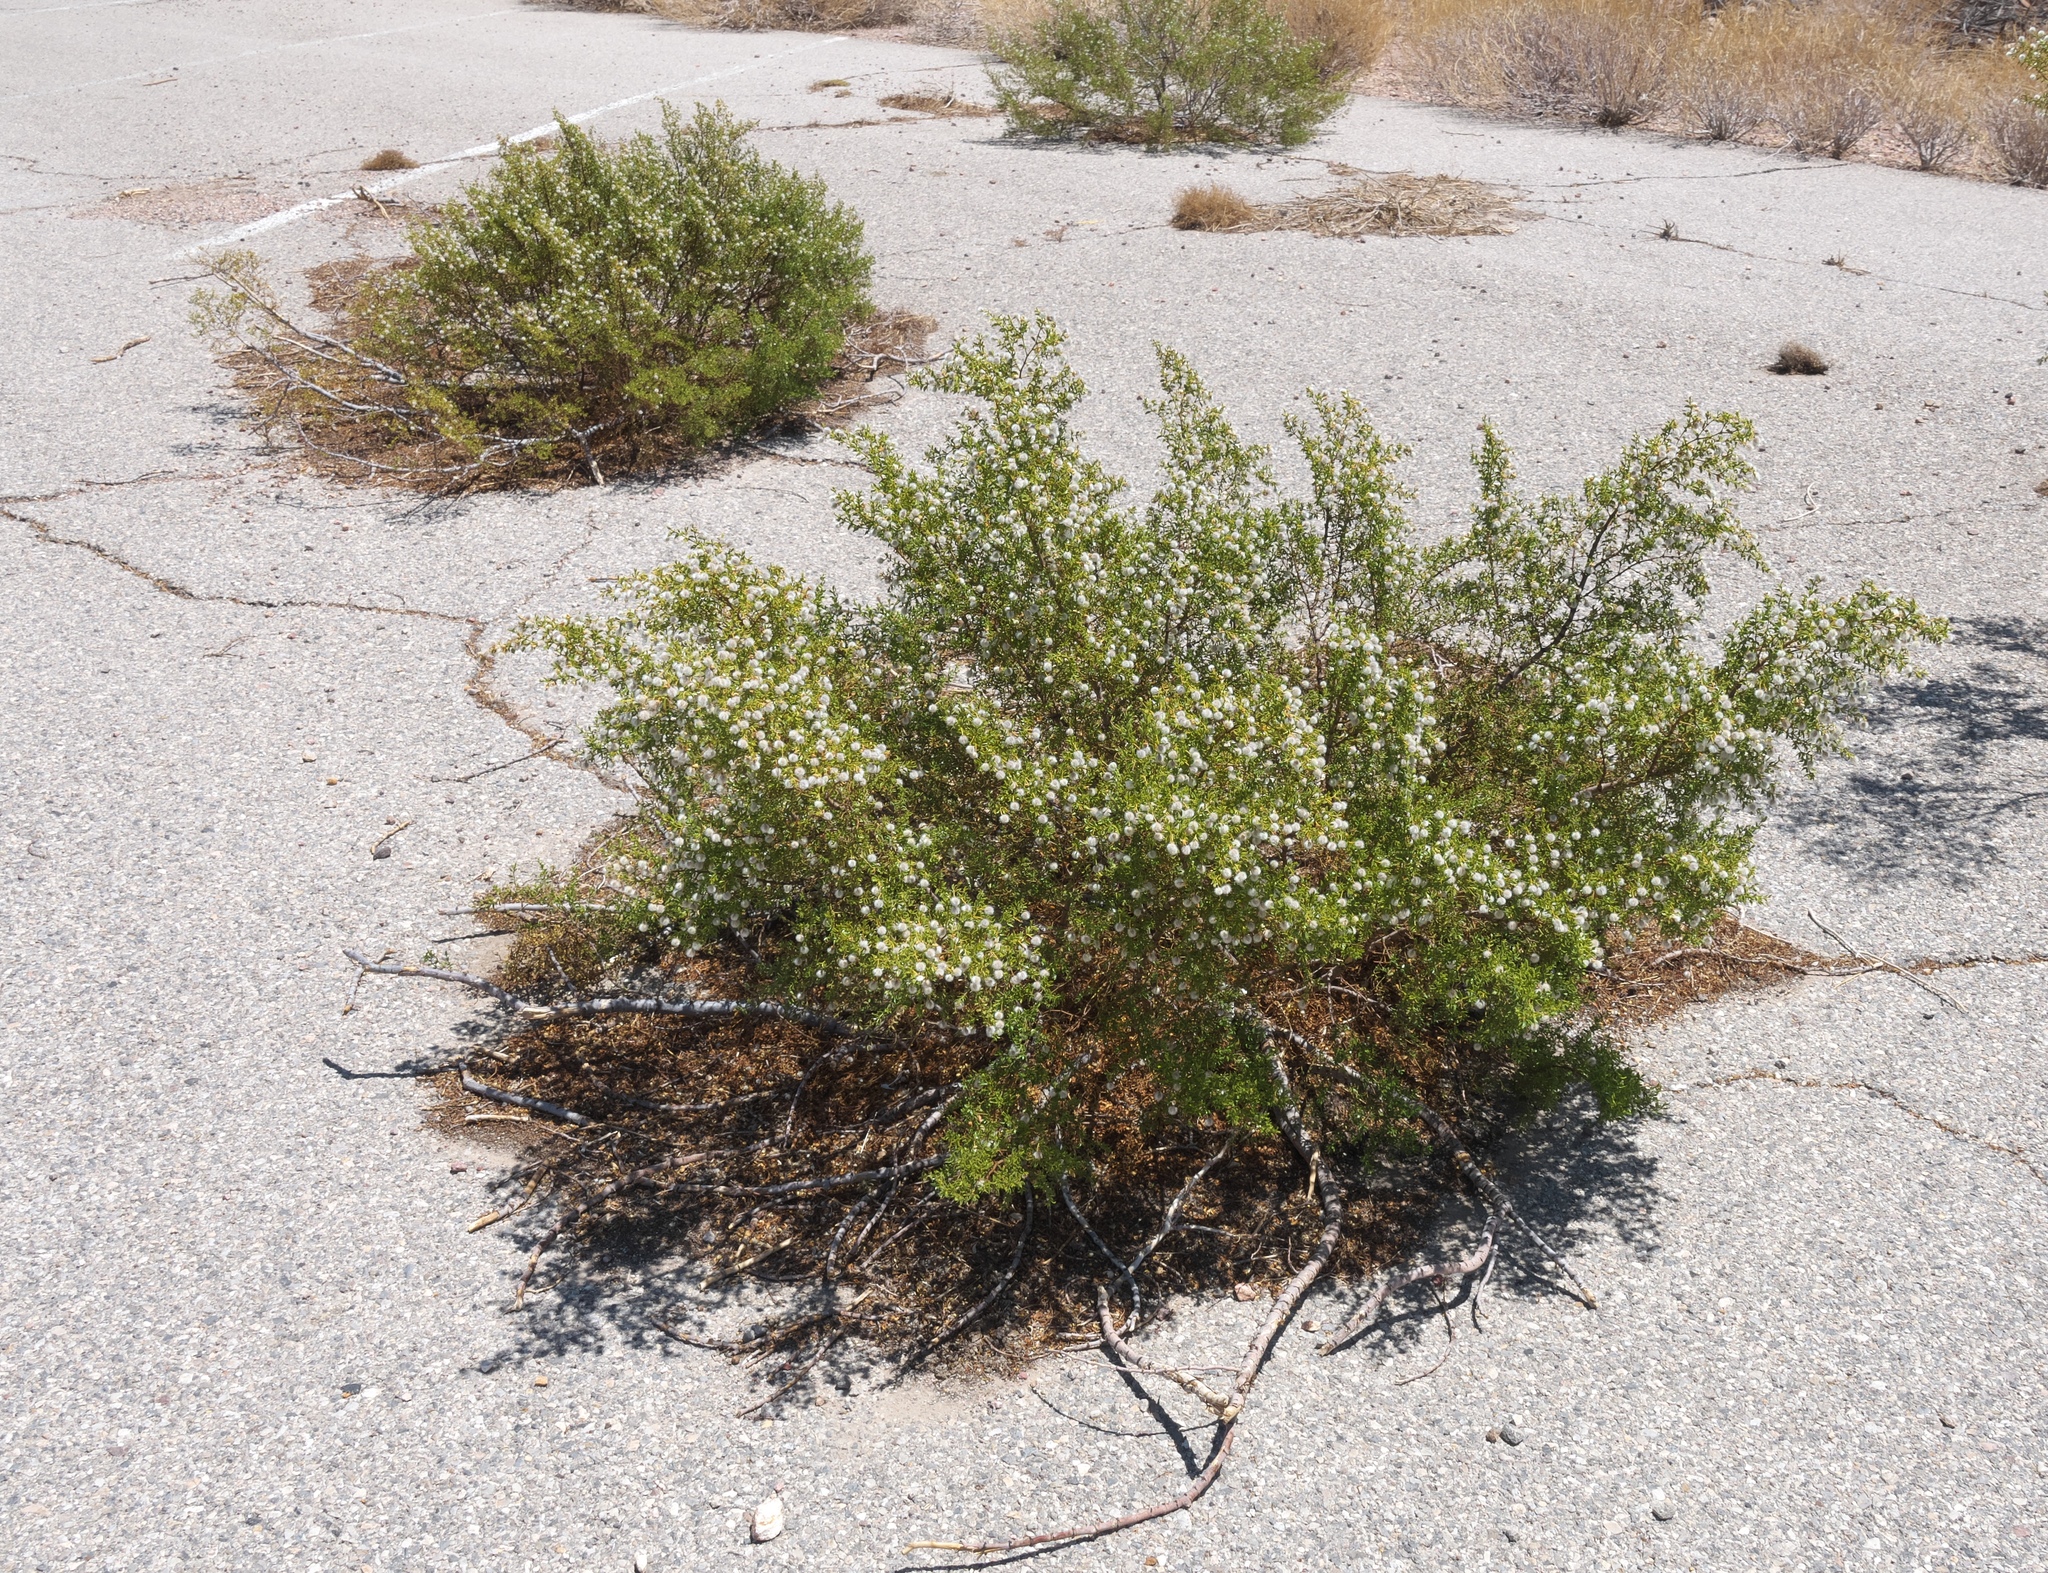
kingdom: Plantae
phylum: Tracheophyta
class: Magnoliopsida
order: Zygophyllales
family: Zygophyllaceae
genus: Larrea
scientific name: Larrea tridentata
